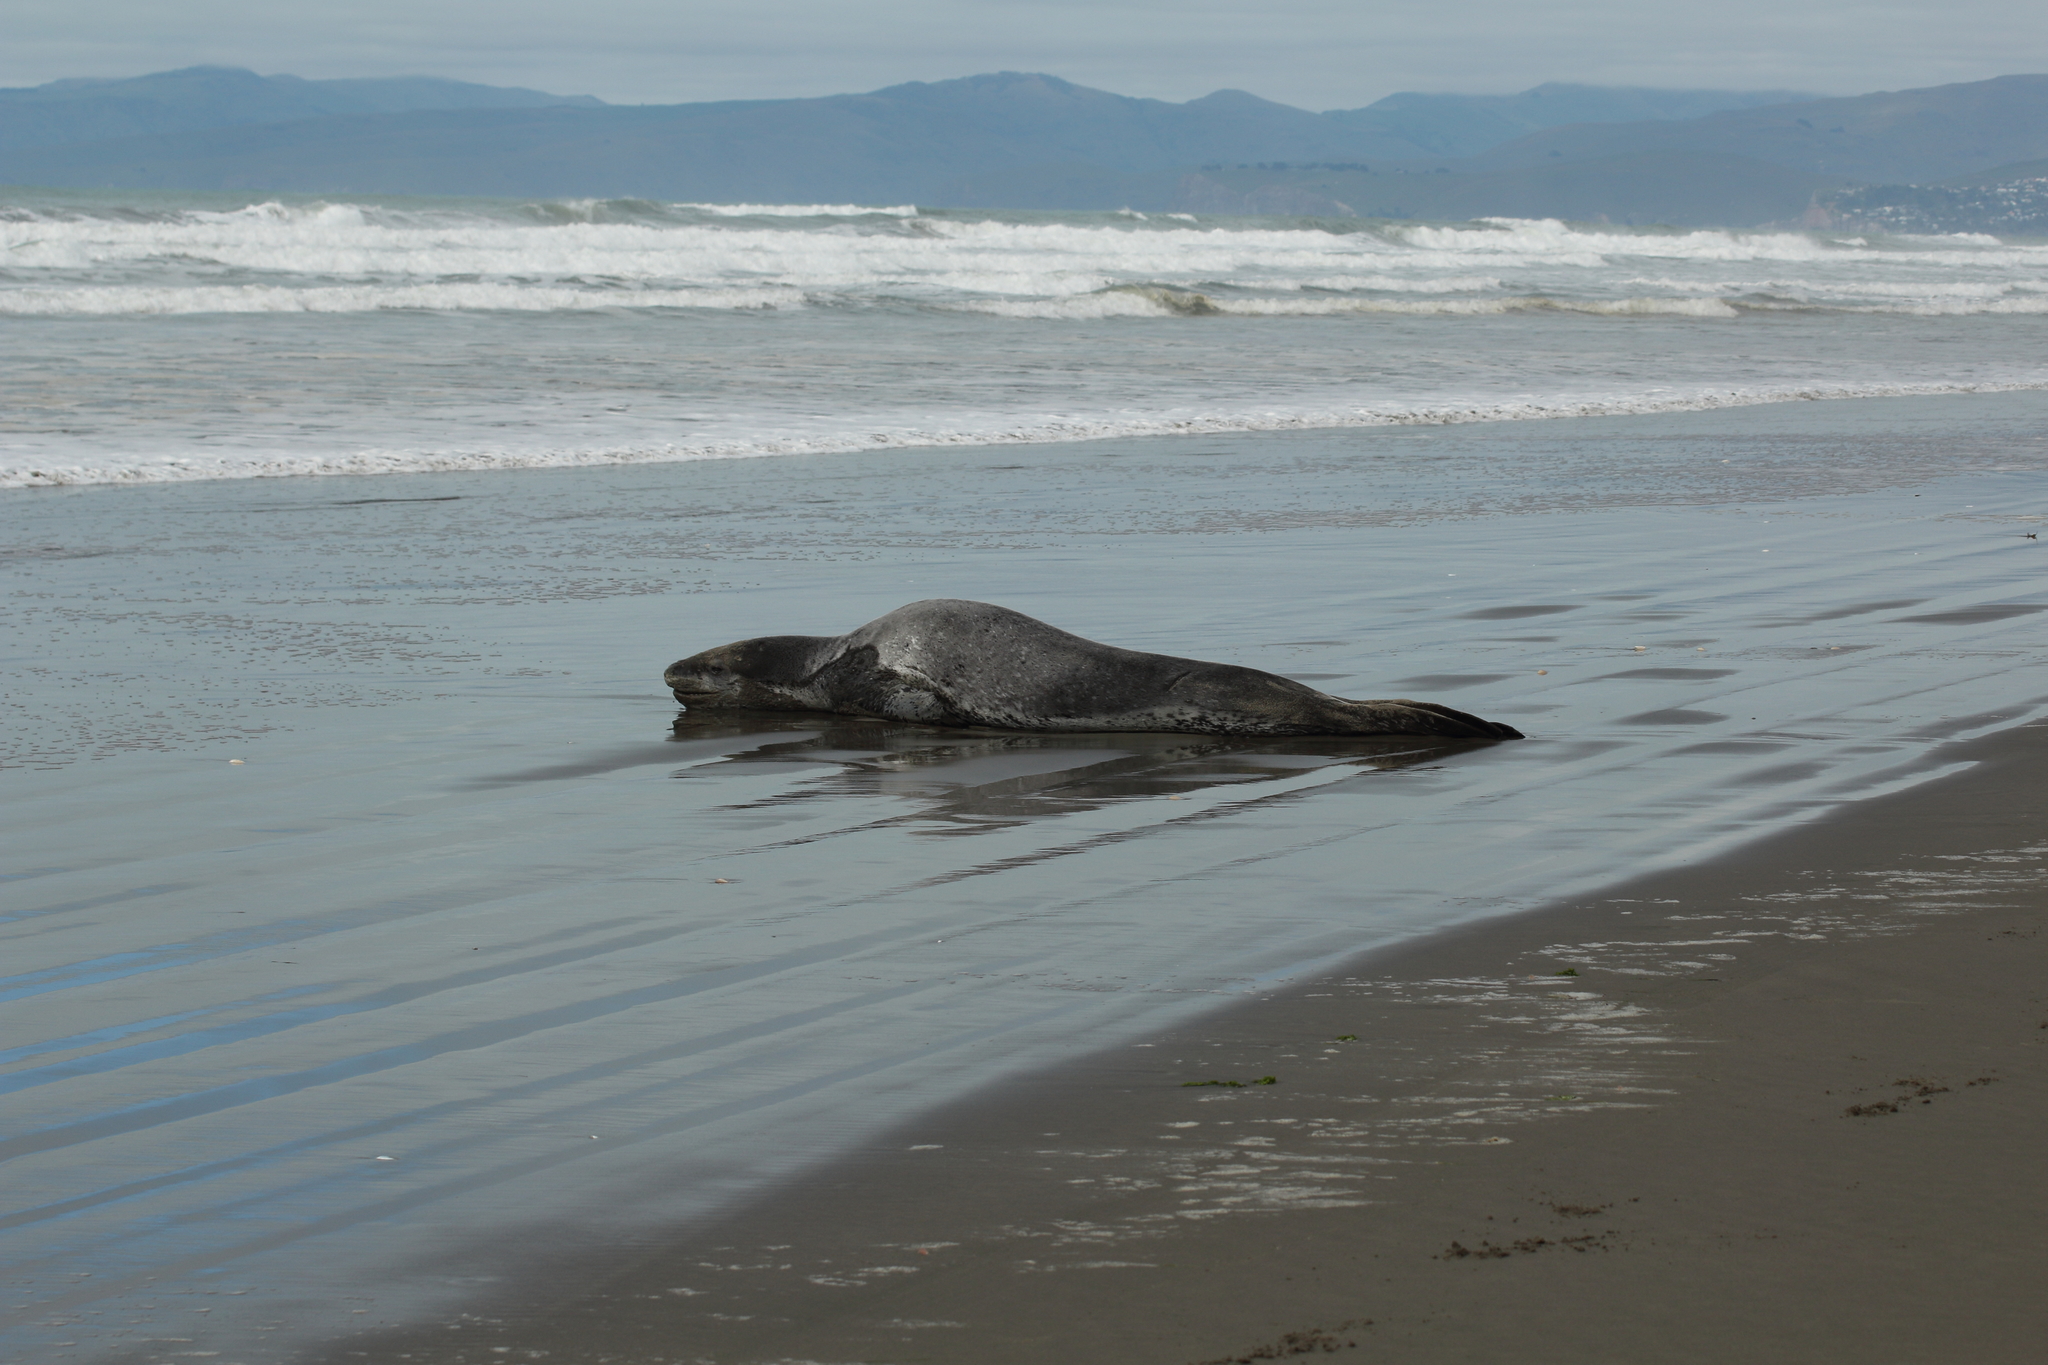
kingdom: Animalia
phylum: Chordata
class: Mammalia
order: Carnivora
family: Phocidae
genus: Hydrurga
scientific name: Hydrurga leptonyx
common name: Leopard seal
